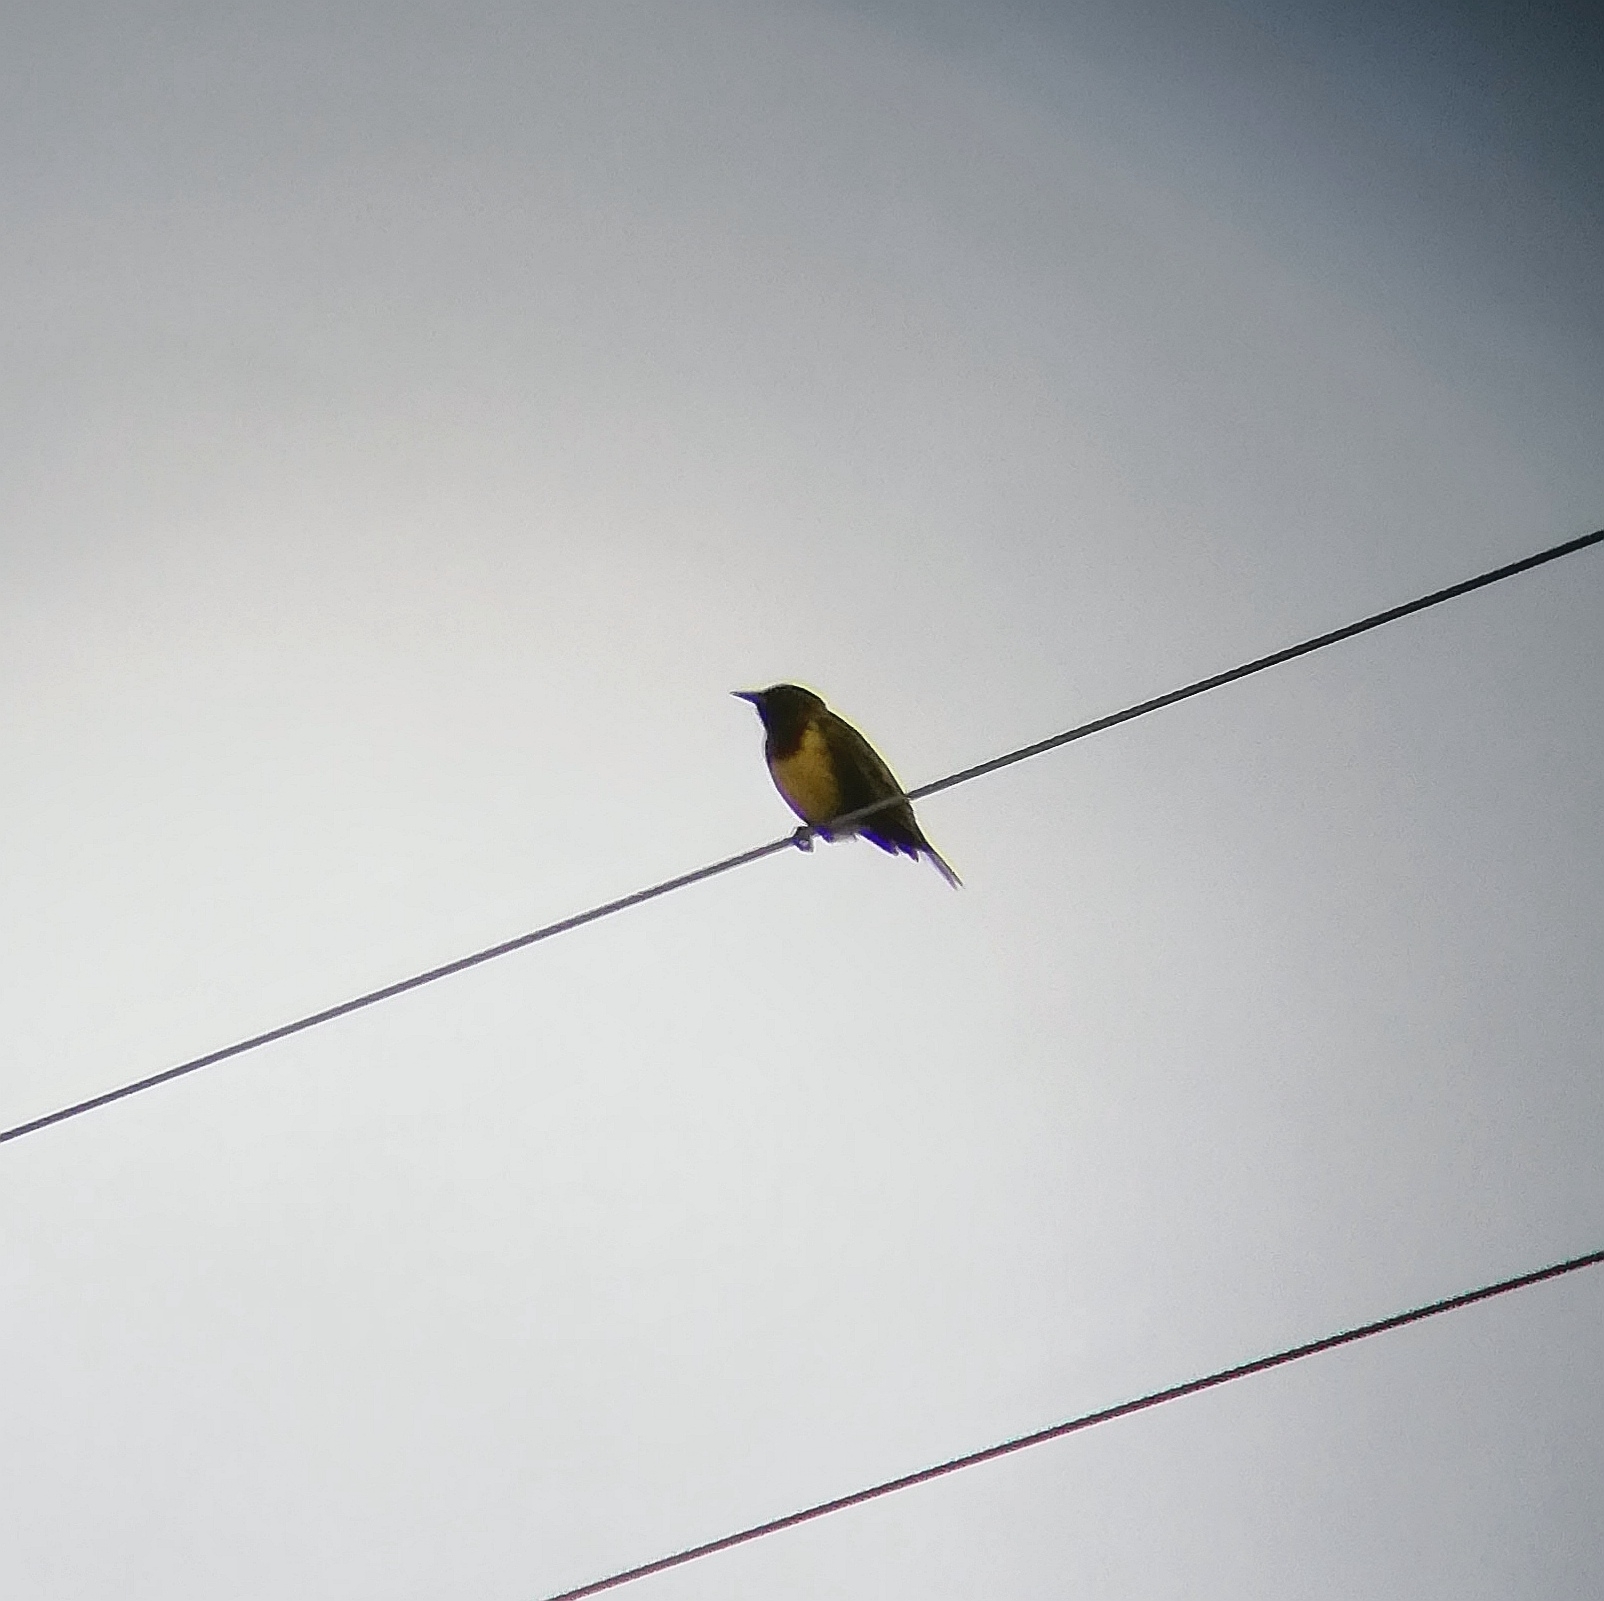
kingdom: Animalia
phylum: Chordata
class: Aves
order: Passeriformes
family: Icteridae
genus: Pseudoleistes
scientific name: Pseudoleistes virescens
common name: Brown-and-yellow marshbird
